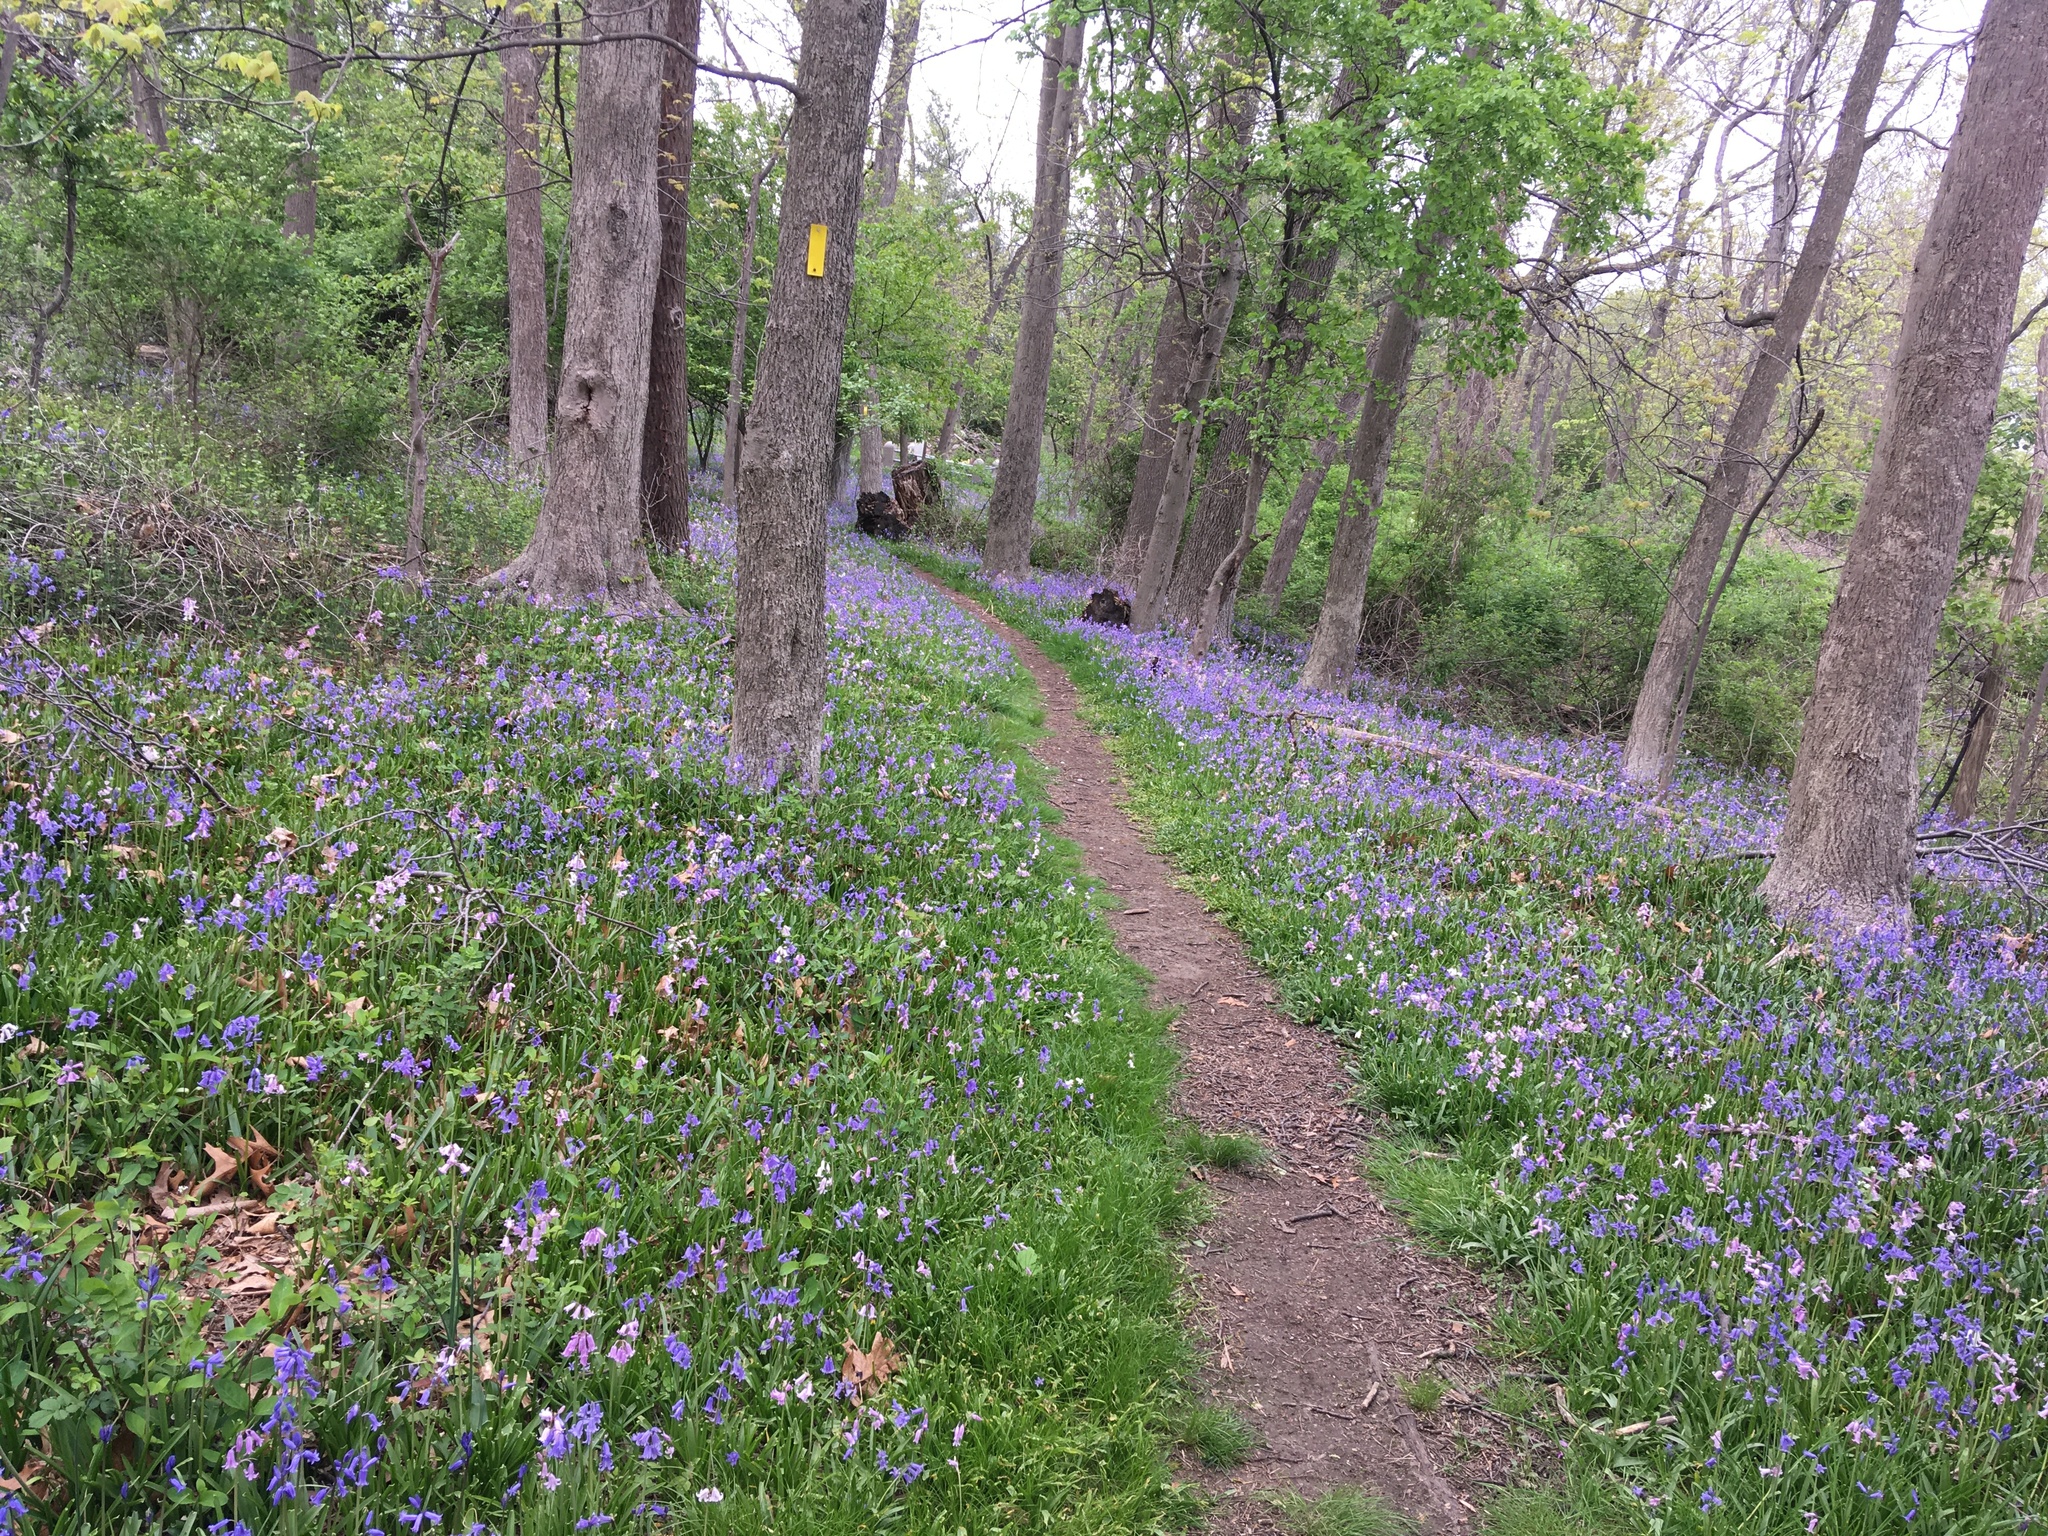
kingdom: Plantae
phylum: Tracheophyta
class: Liliopsida
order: Asparagales
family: Asparagaceae
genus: Hyacinthoides
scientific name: Hyacinthoides massartiana
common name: Hyacinthoides
